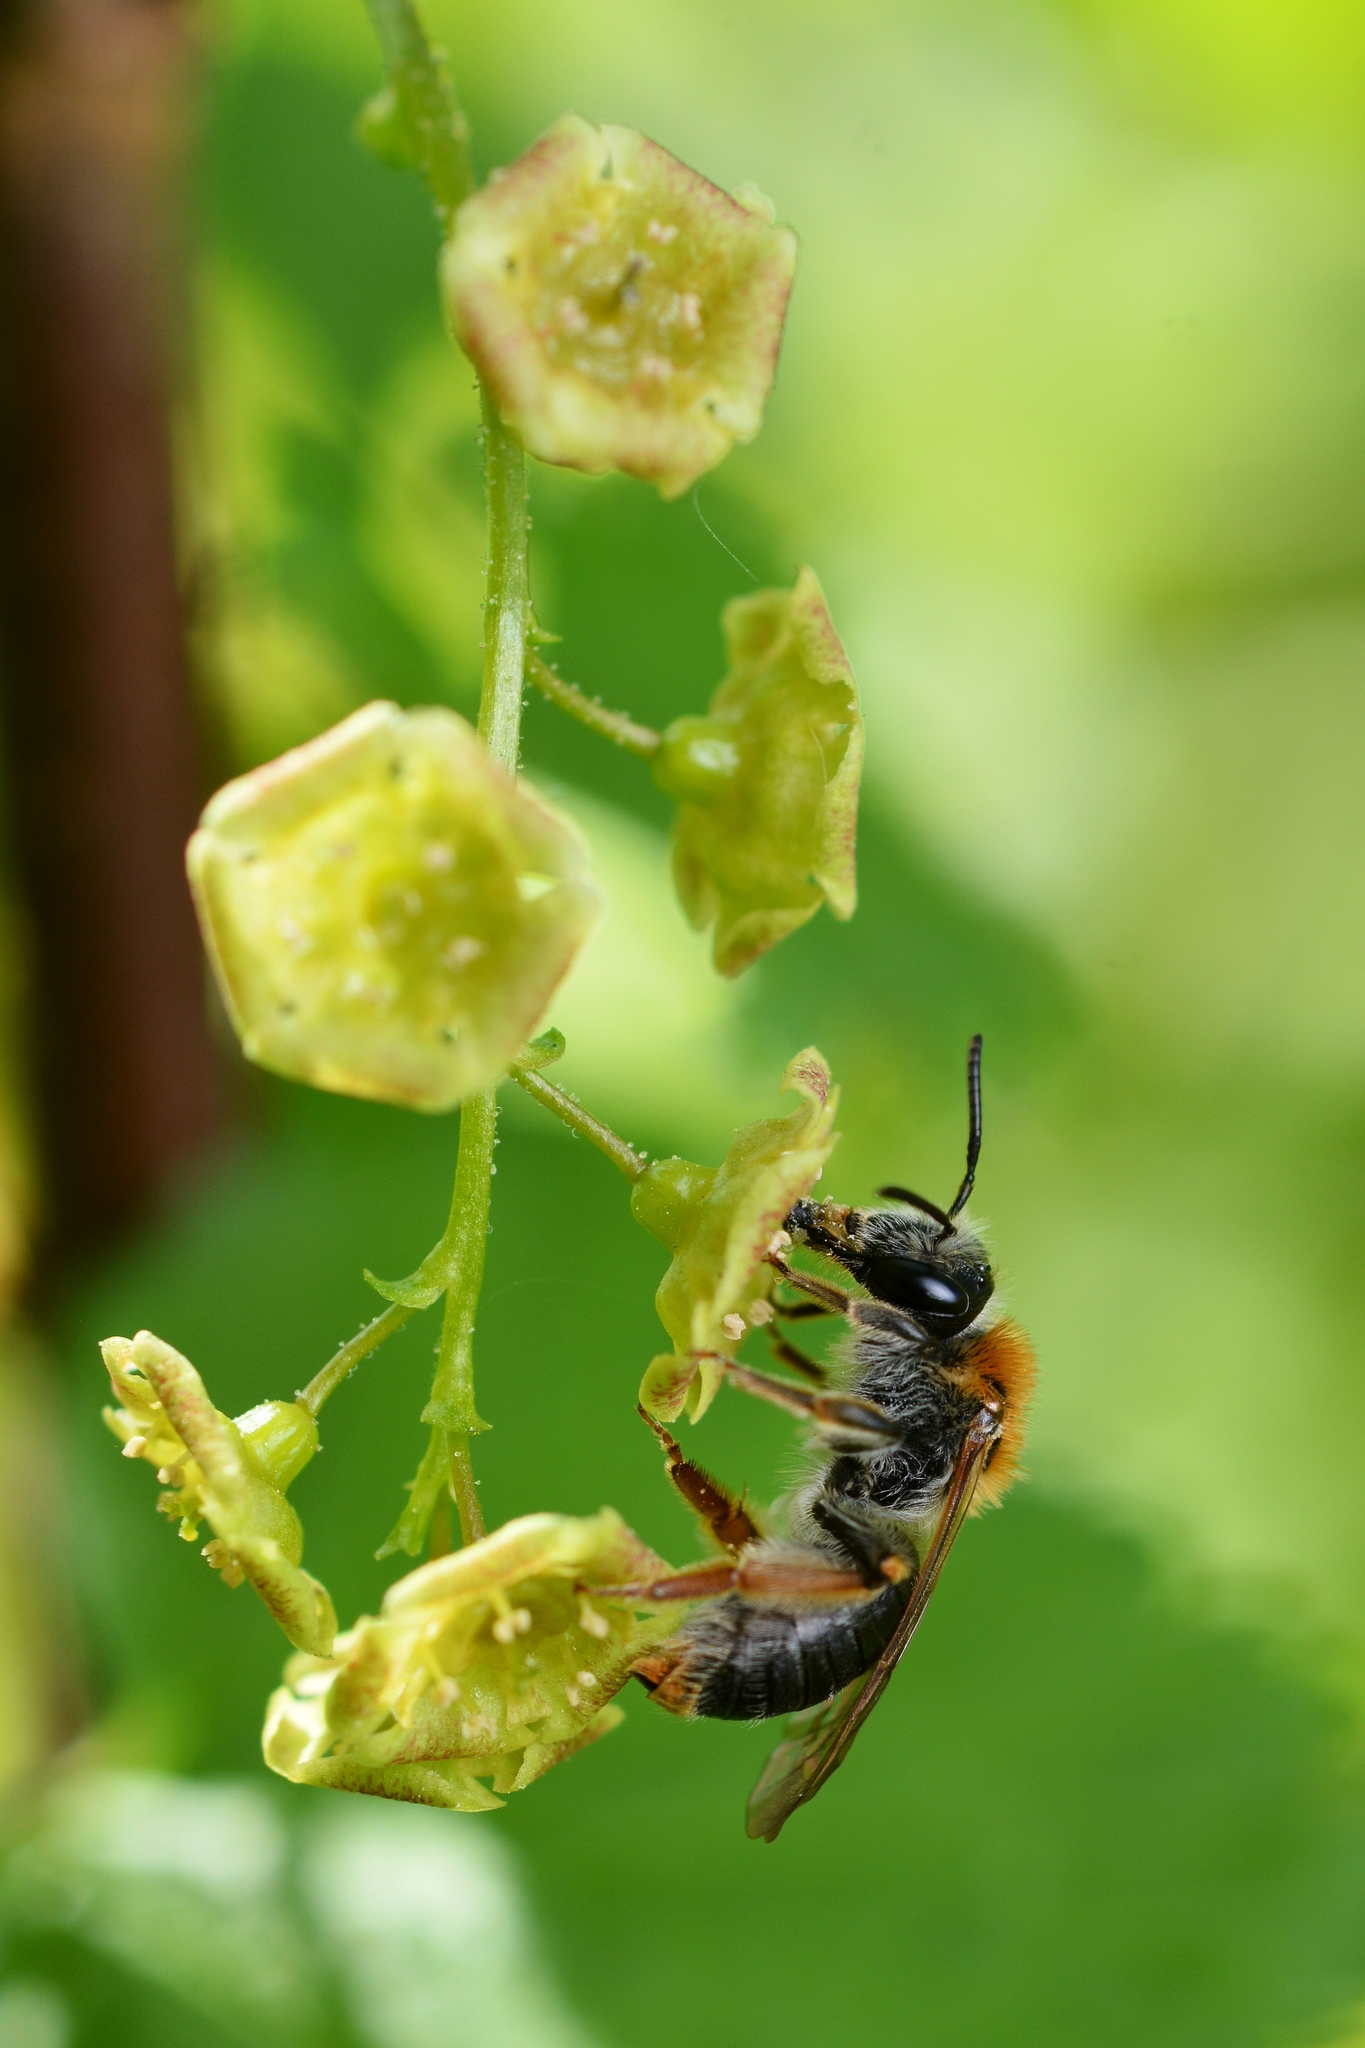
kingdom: Animalia
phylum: Arthropoda
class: Insecta
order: Hymenoptera
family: Andrenidae
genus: Andrena
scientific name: Andrena haemorrhoa
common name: Early mining bee
